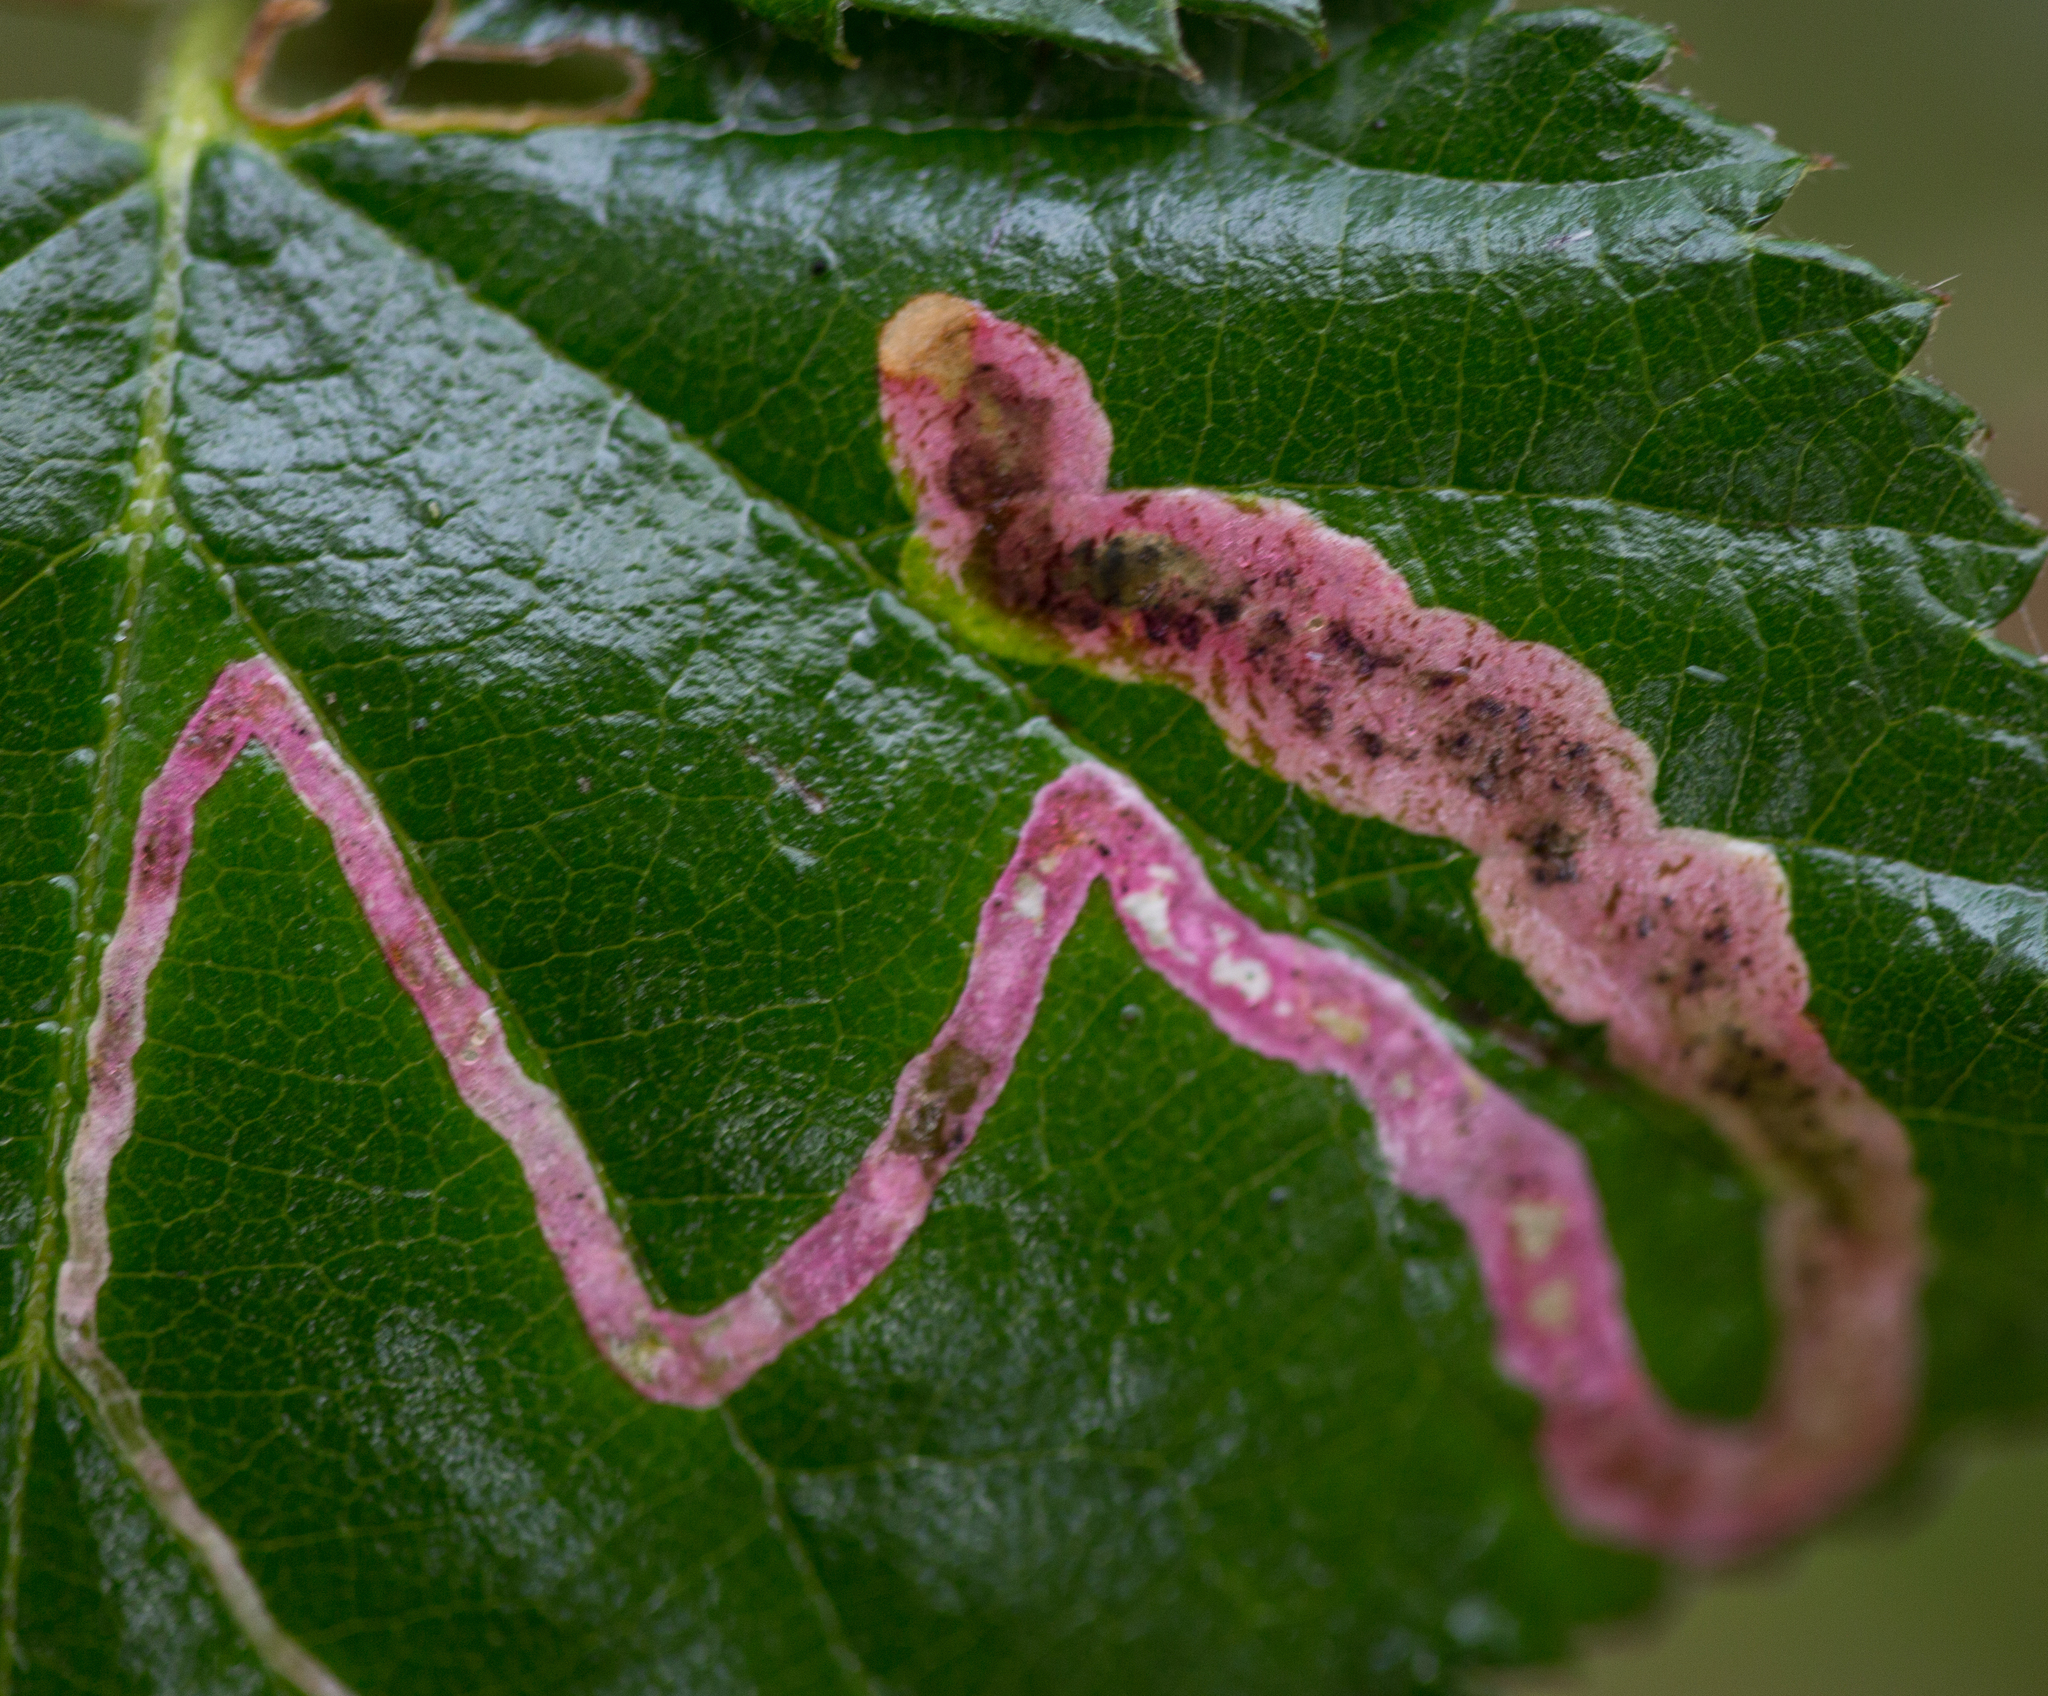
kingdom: Animalia
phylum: Arthropoda
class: Insecta
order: Diptera
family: Agromyzidae
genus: Agromyza
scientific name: Agromyza vockerothi
